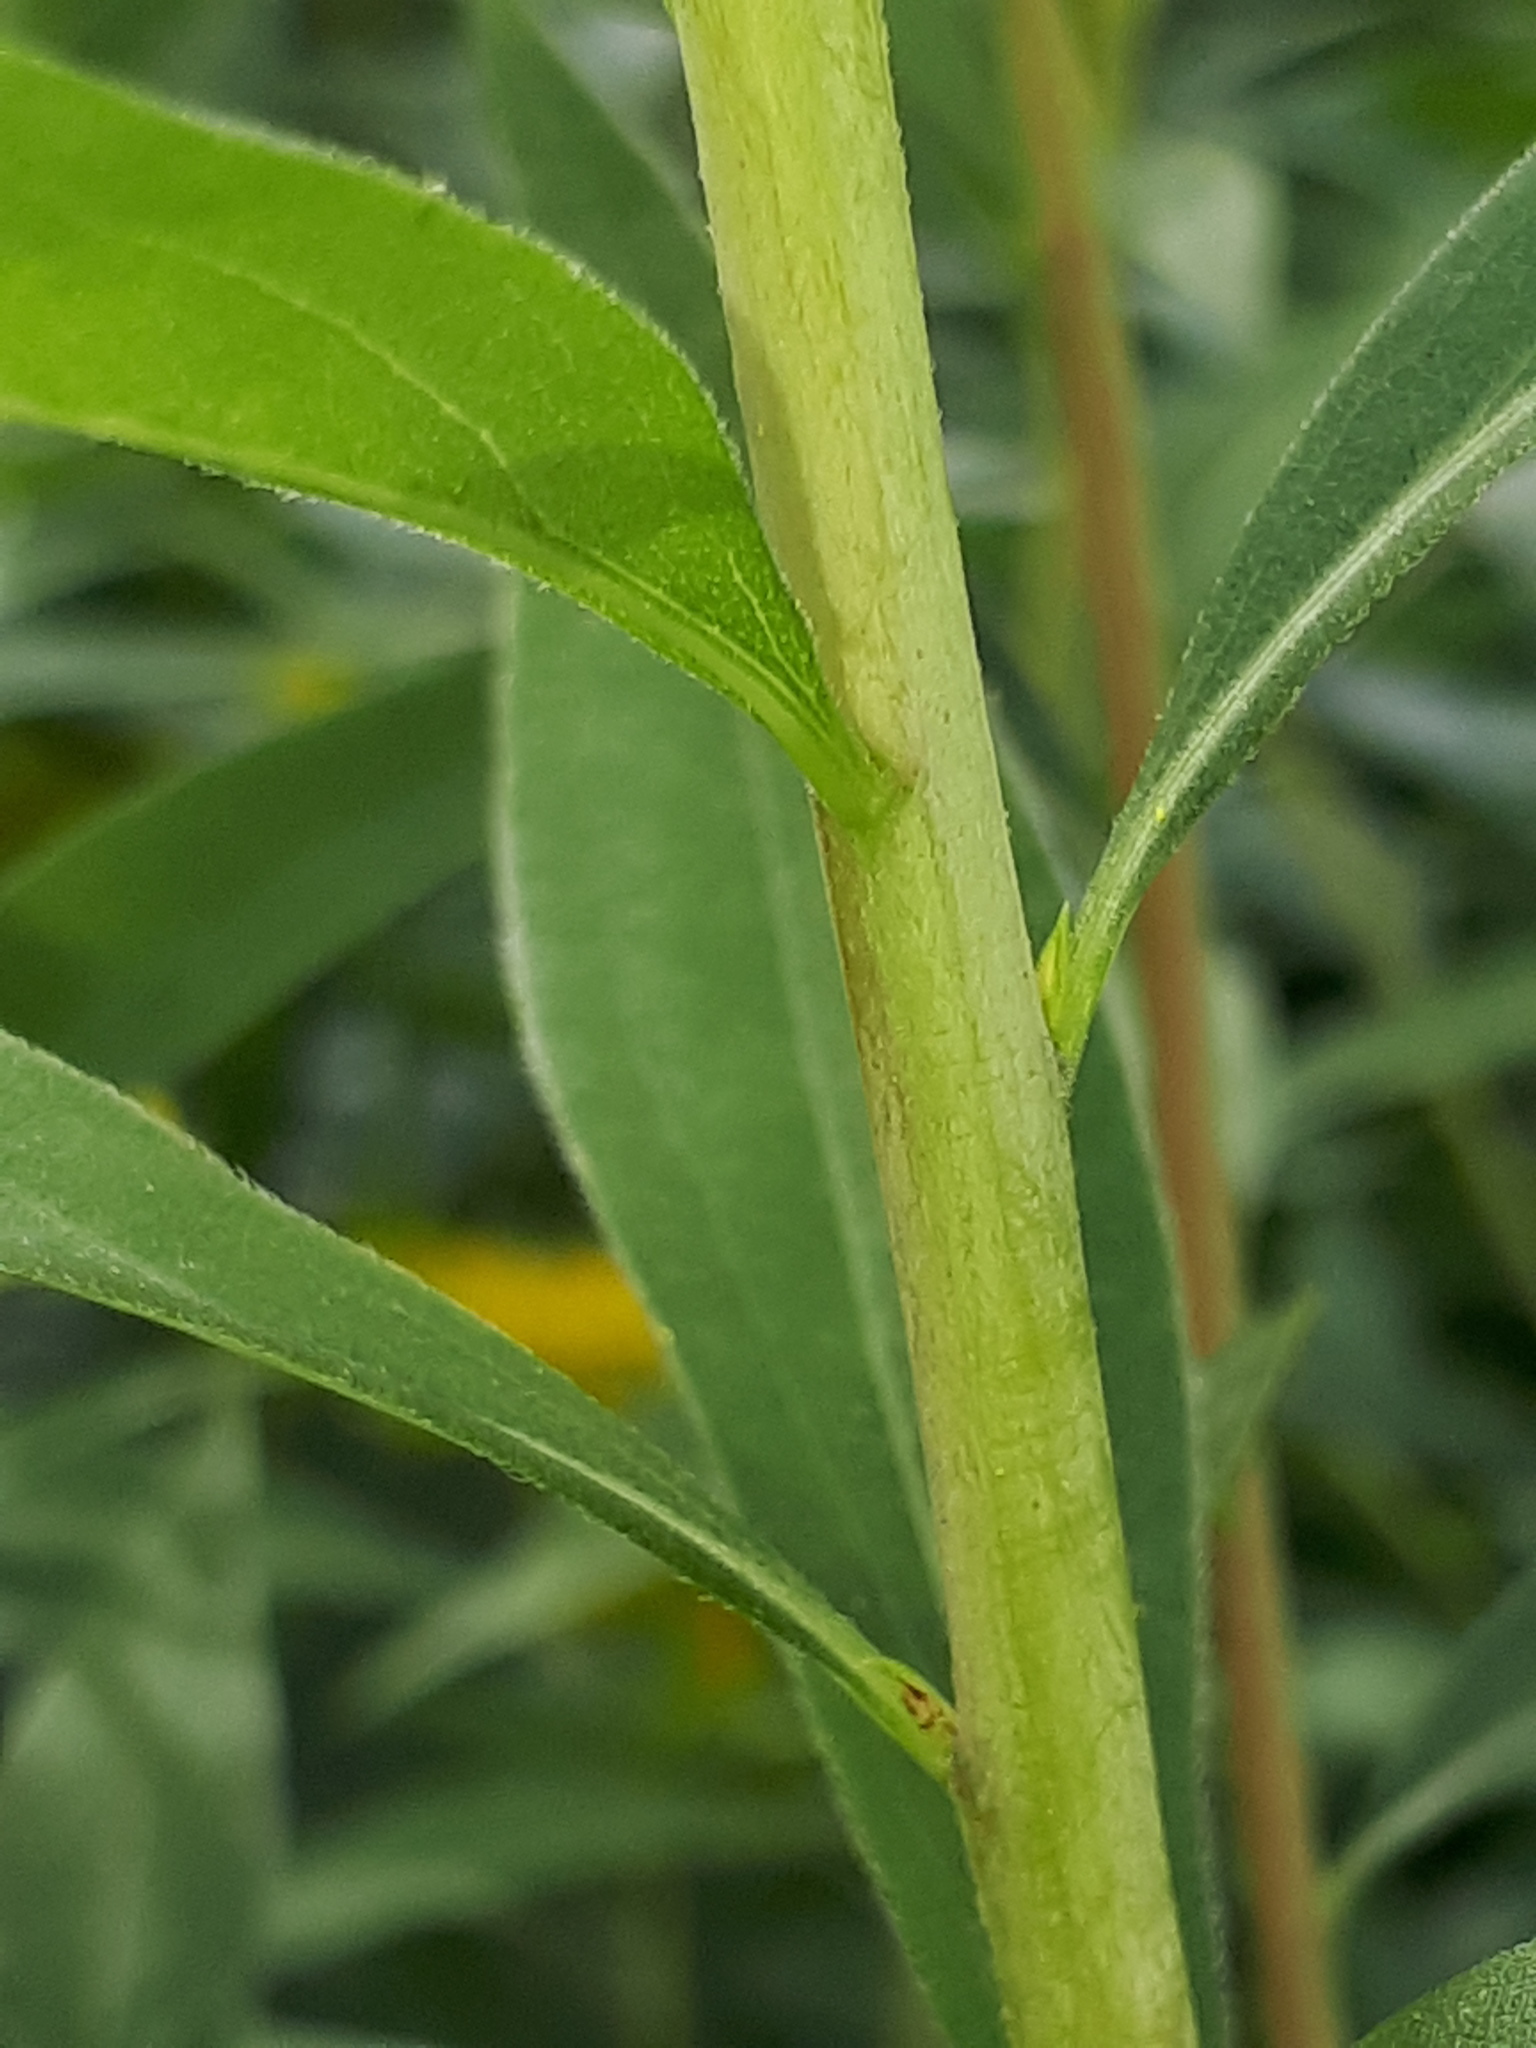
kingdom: Plantae
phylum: Tracheophyta
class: Magnoliopsida
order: Asterales
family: Asteraceae
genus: Solidago
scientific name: Solidago gigantea
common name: Giant goldenrod
